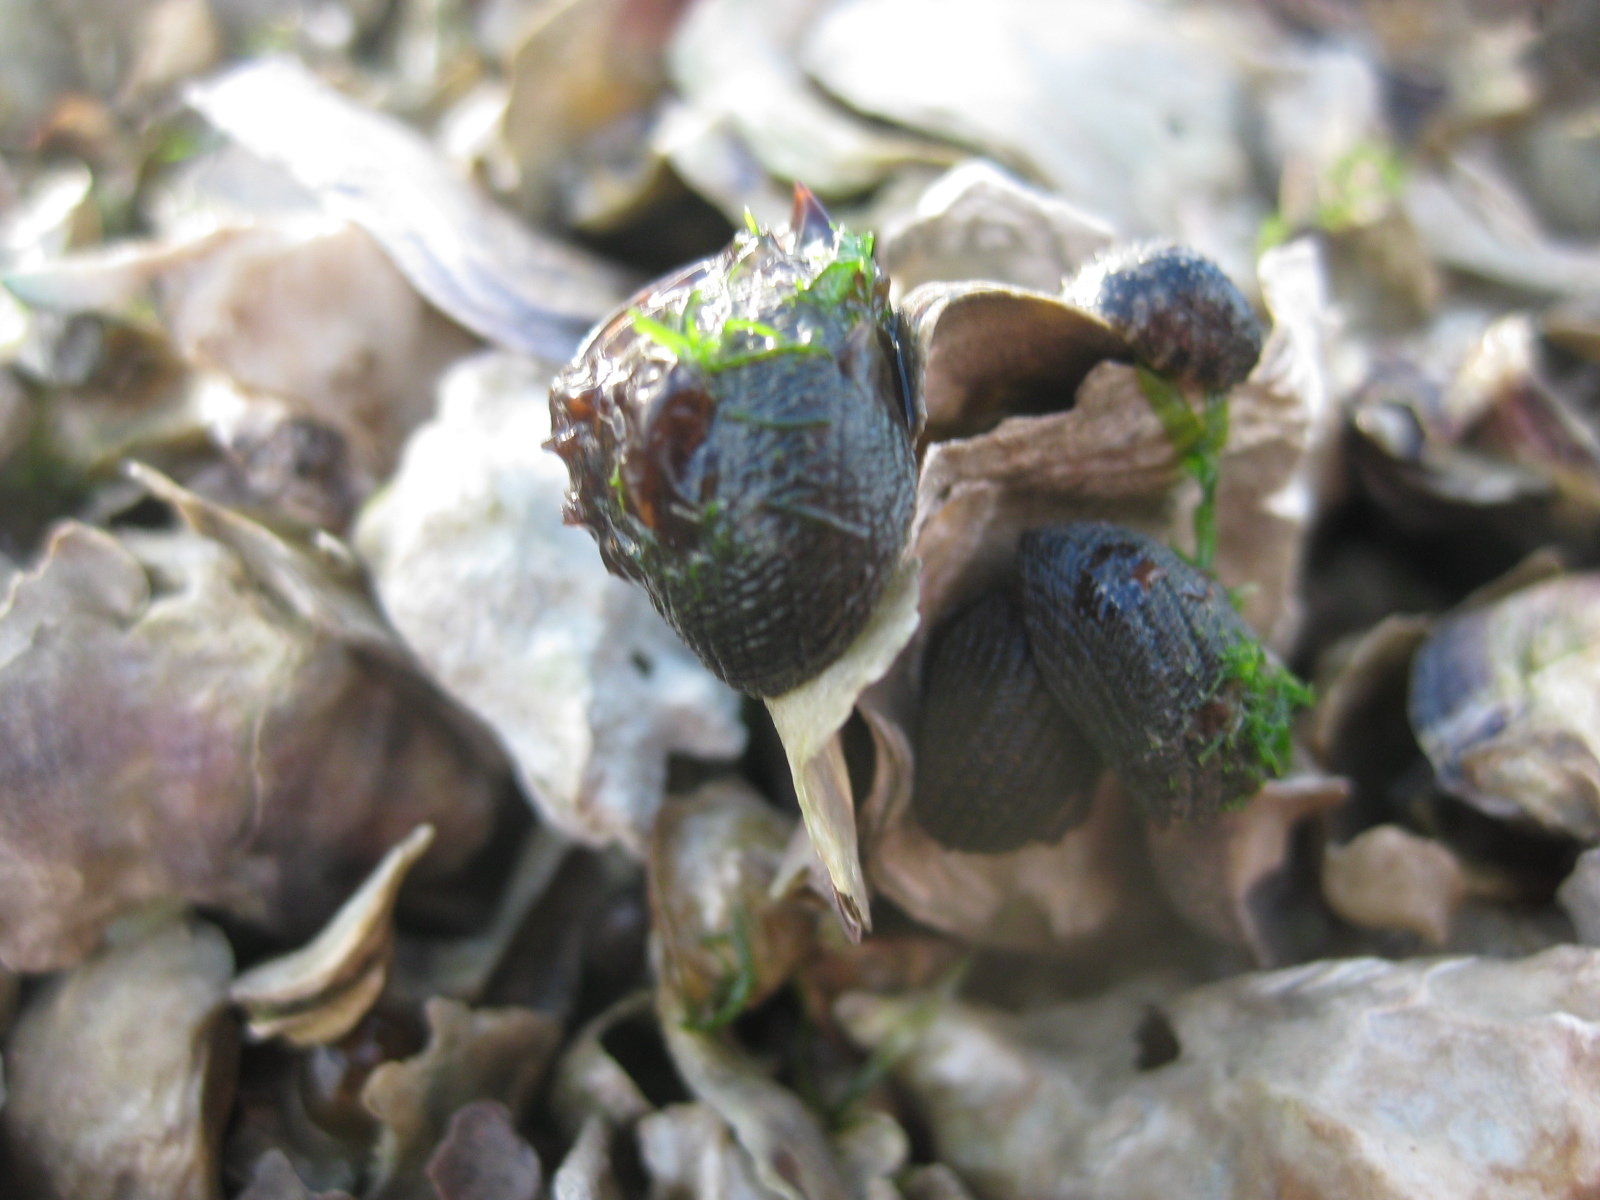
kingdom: Animalia
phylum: Mollusca
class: Gastropoda
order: Trochida
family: Trochidae
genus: Diloma
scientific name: Diloma aethiops
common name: Scorched monodont
